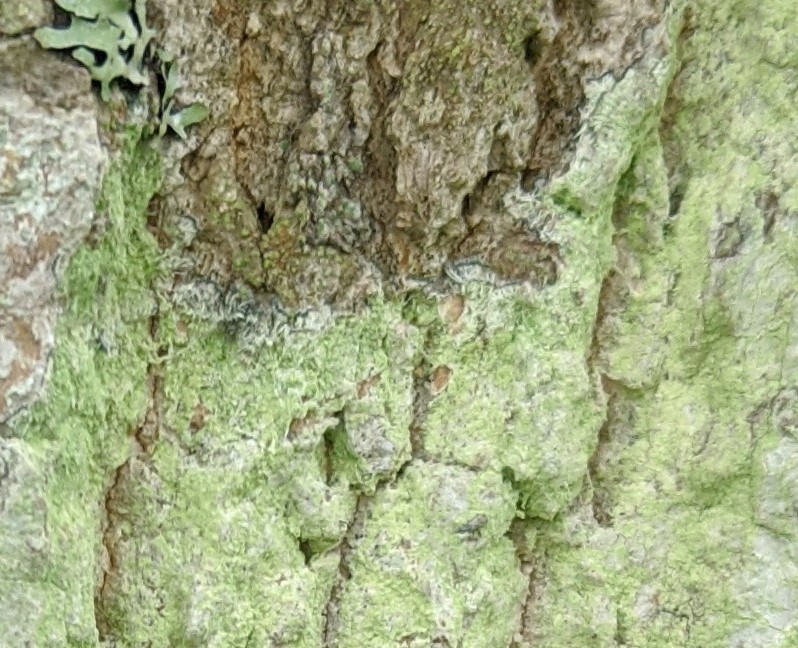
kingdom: Fungi
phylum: Ascomycota
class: Lecanoromycetes
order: Pertusariales
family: Pertusariaceae
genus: Verseghya
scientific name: Verseghya thysanophora
